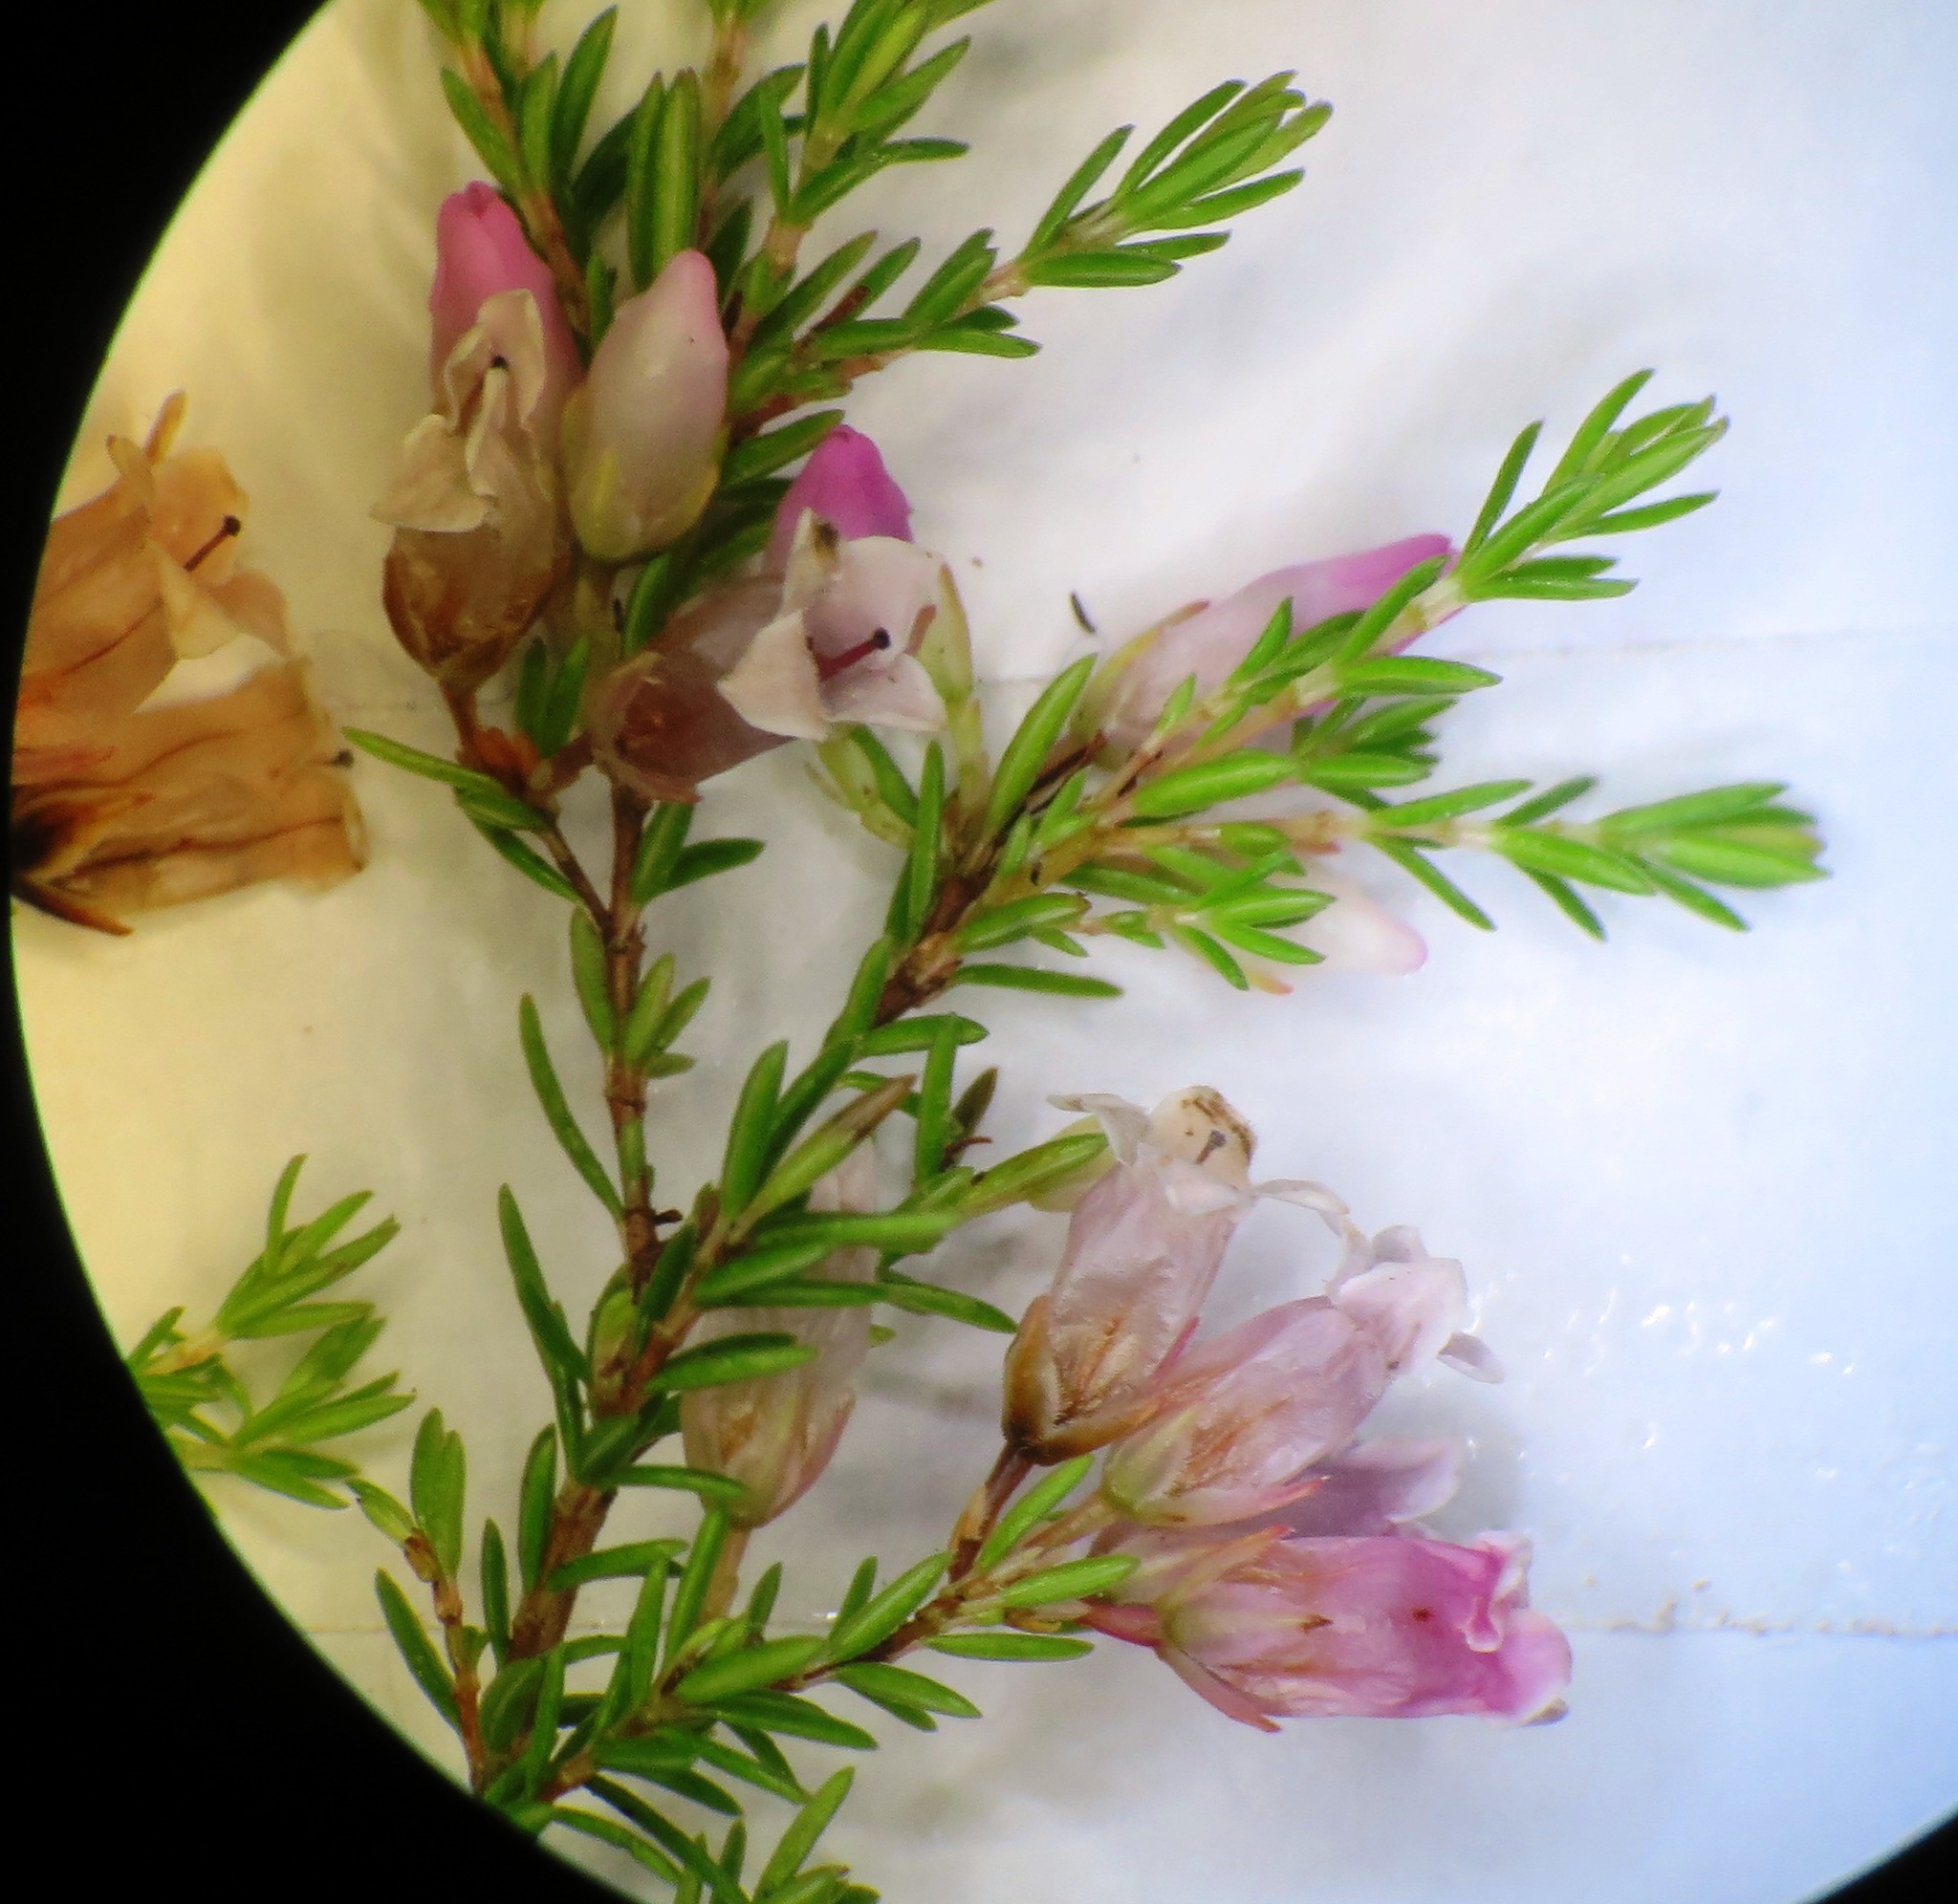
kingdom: Plantae
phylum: Tracheophyta
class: Magnoliopsida
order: Ericales
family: Ericaceae
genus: Erica
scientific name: Erica leucantha
